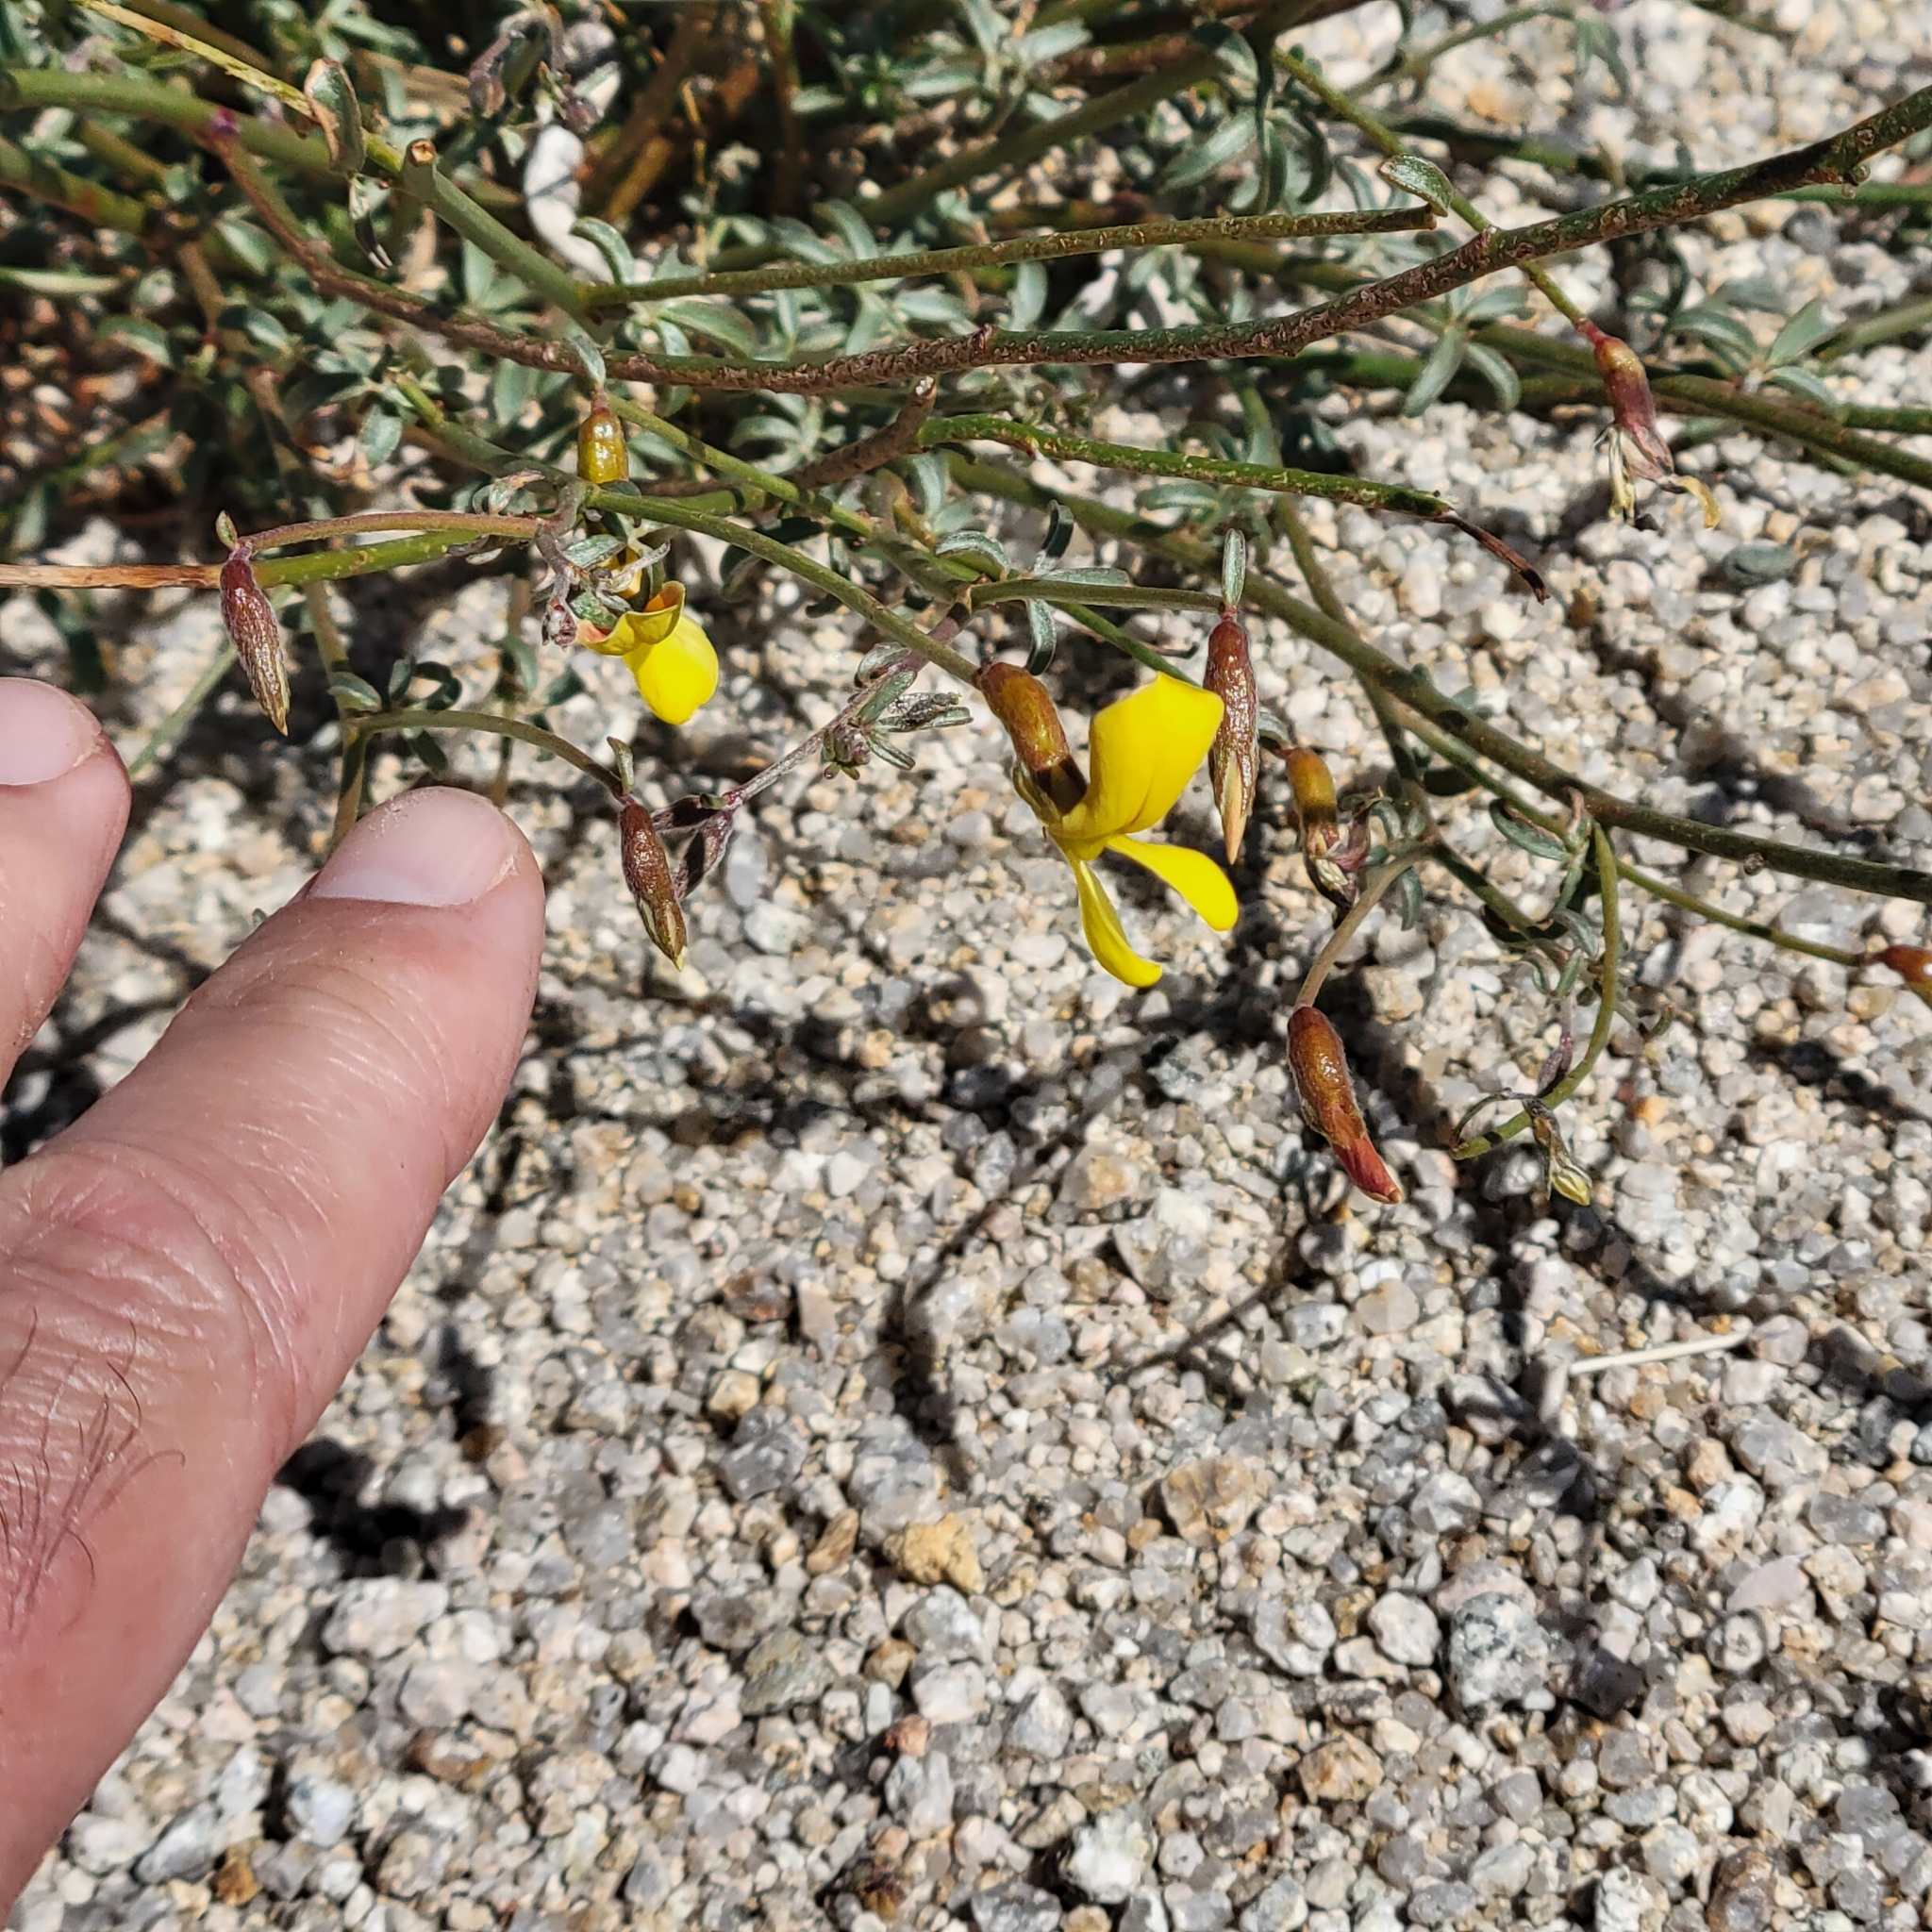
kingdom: Plantae
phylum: Tracheophyta
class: Magnoliopsida
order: Fabales
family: Fabaceae
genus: Acmispon
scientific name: Acmispon rigidus
